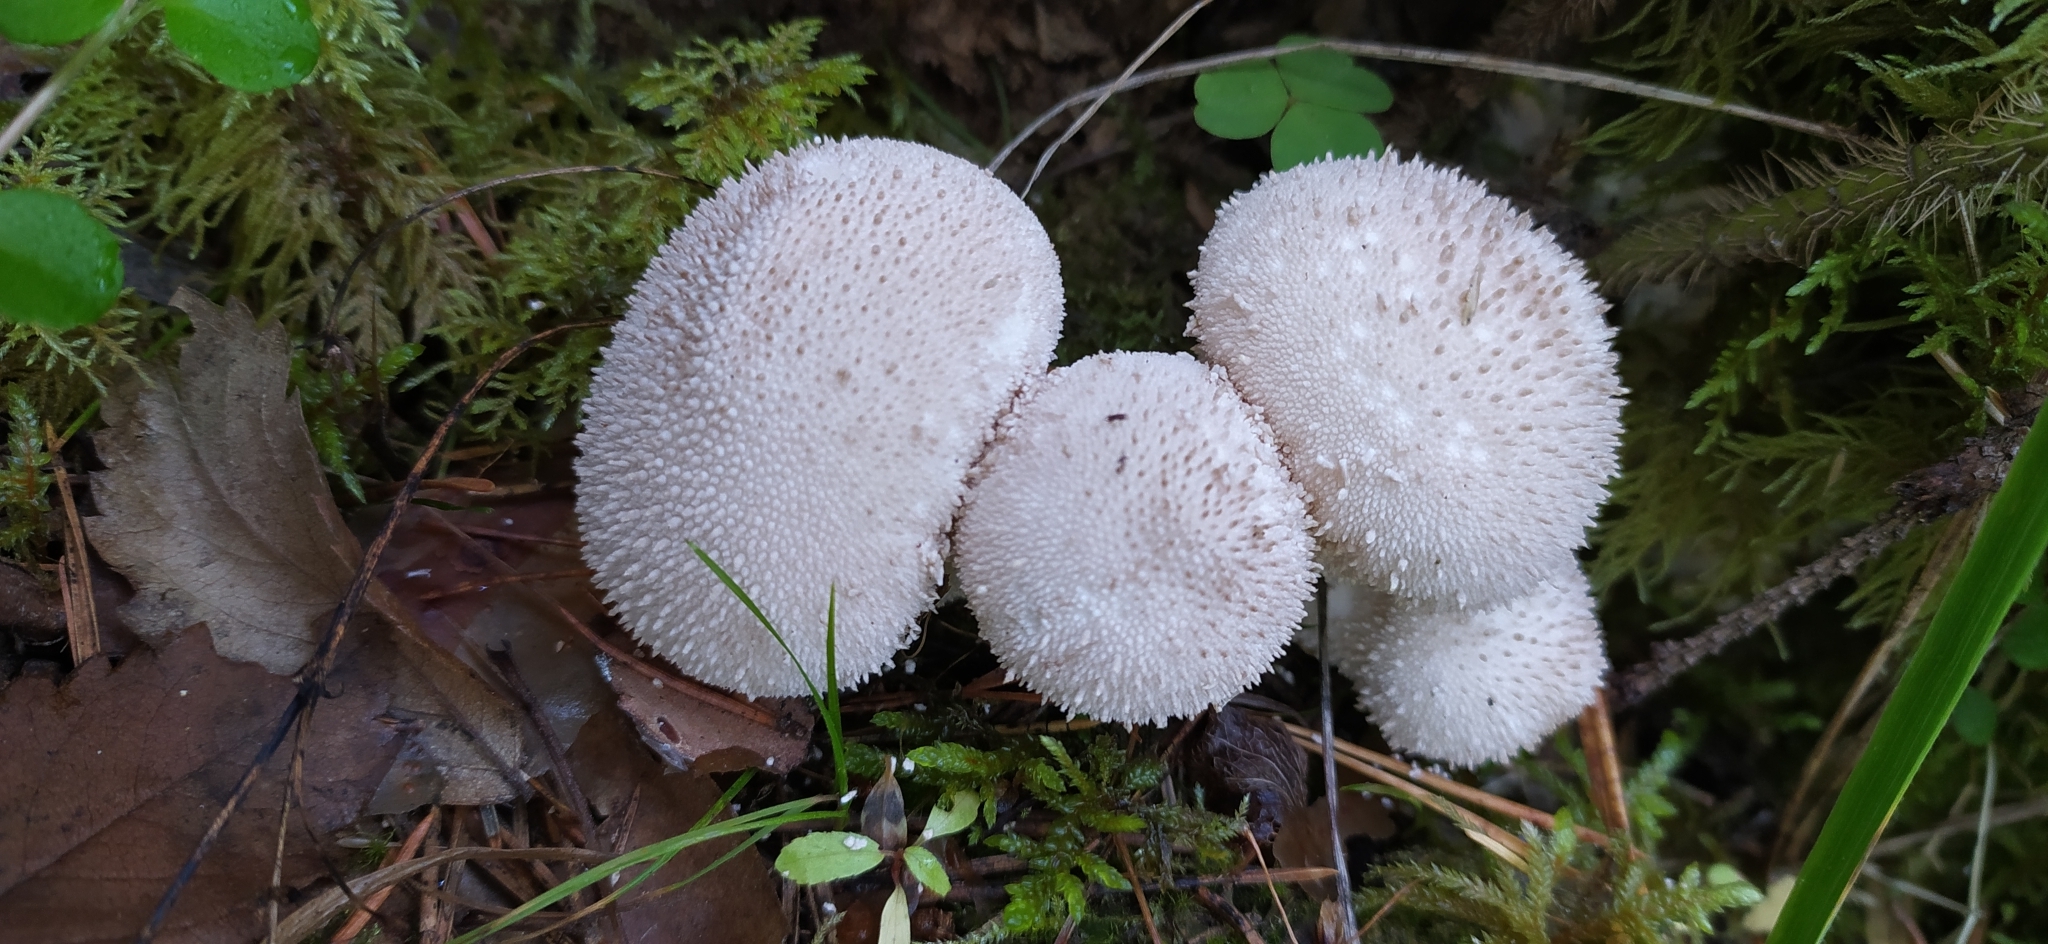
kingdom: Fungi
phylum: Basidiomycota
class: Agaricomycetes
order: Agaricales
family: Lycoperdaceae
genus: Lycoperdon
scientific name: Lycoperdon perlatum
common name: Common puffball
